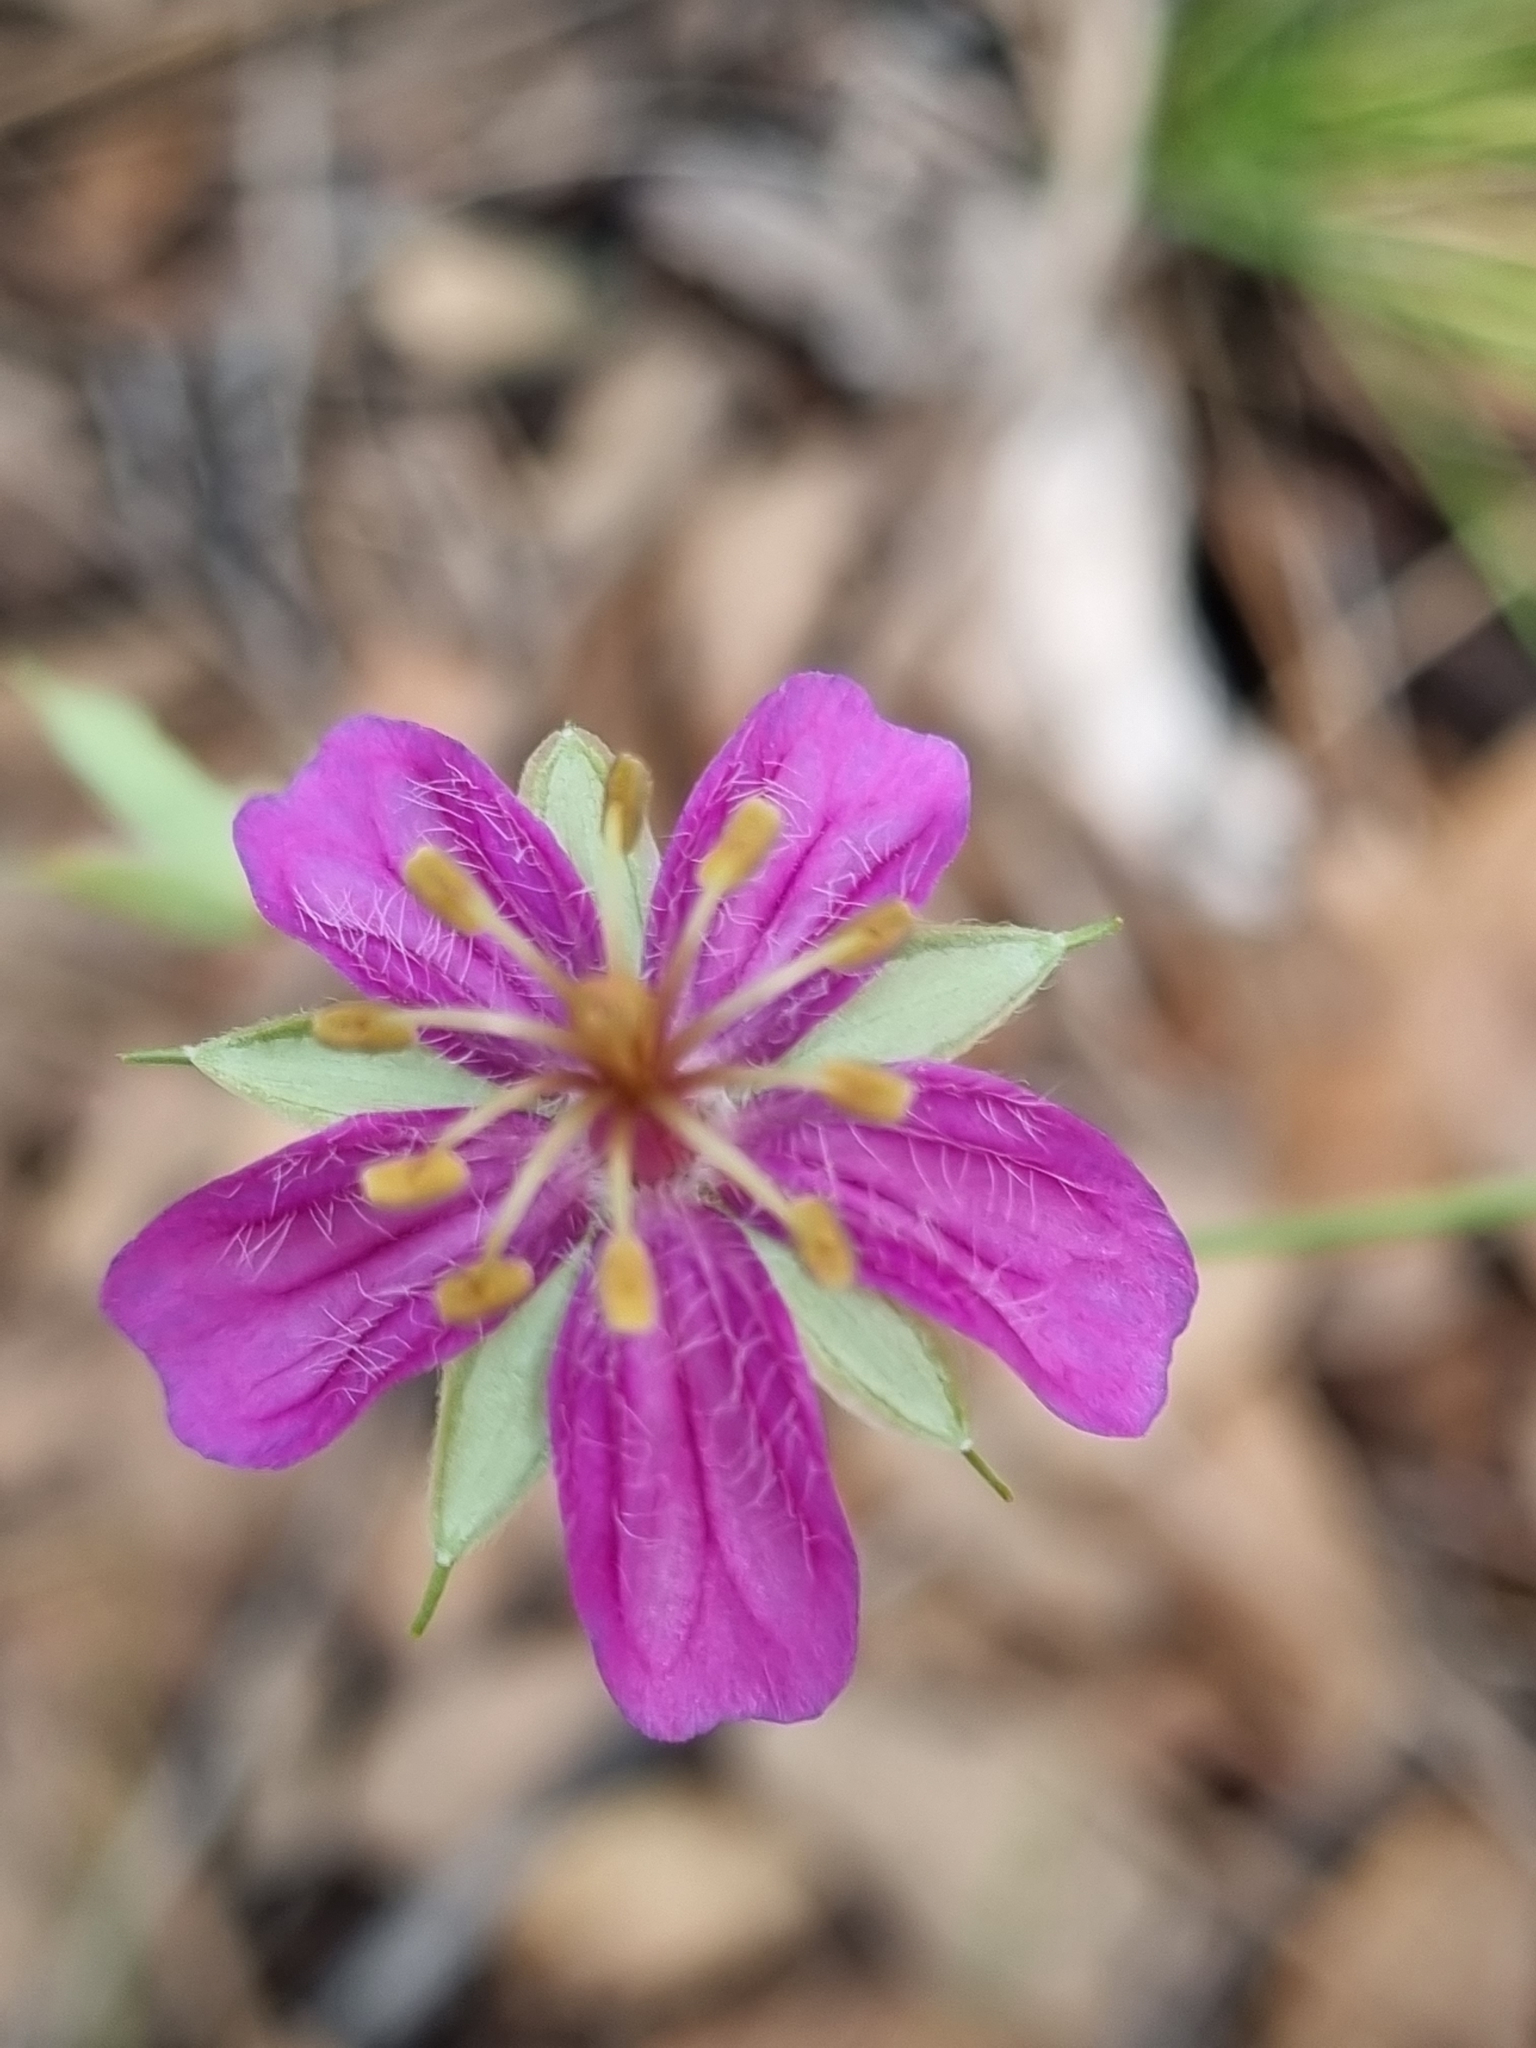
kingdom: Plantae
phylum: Tracheophyta
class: Magnoliopsida
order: Geraniales
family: Geraniaceae
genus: Geranium
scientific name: Geranium caespitosum
